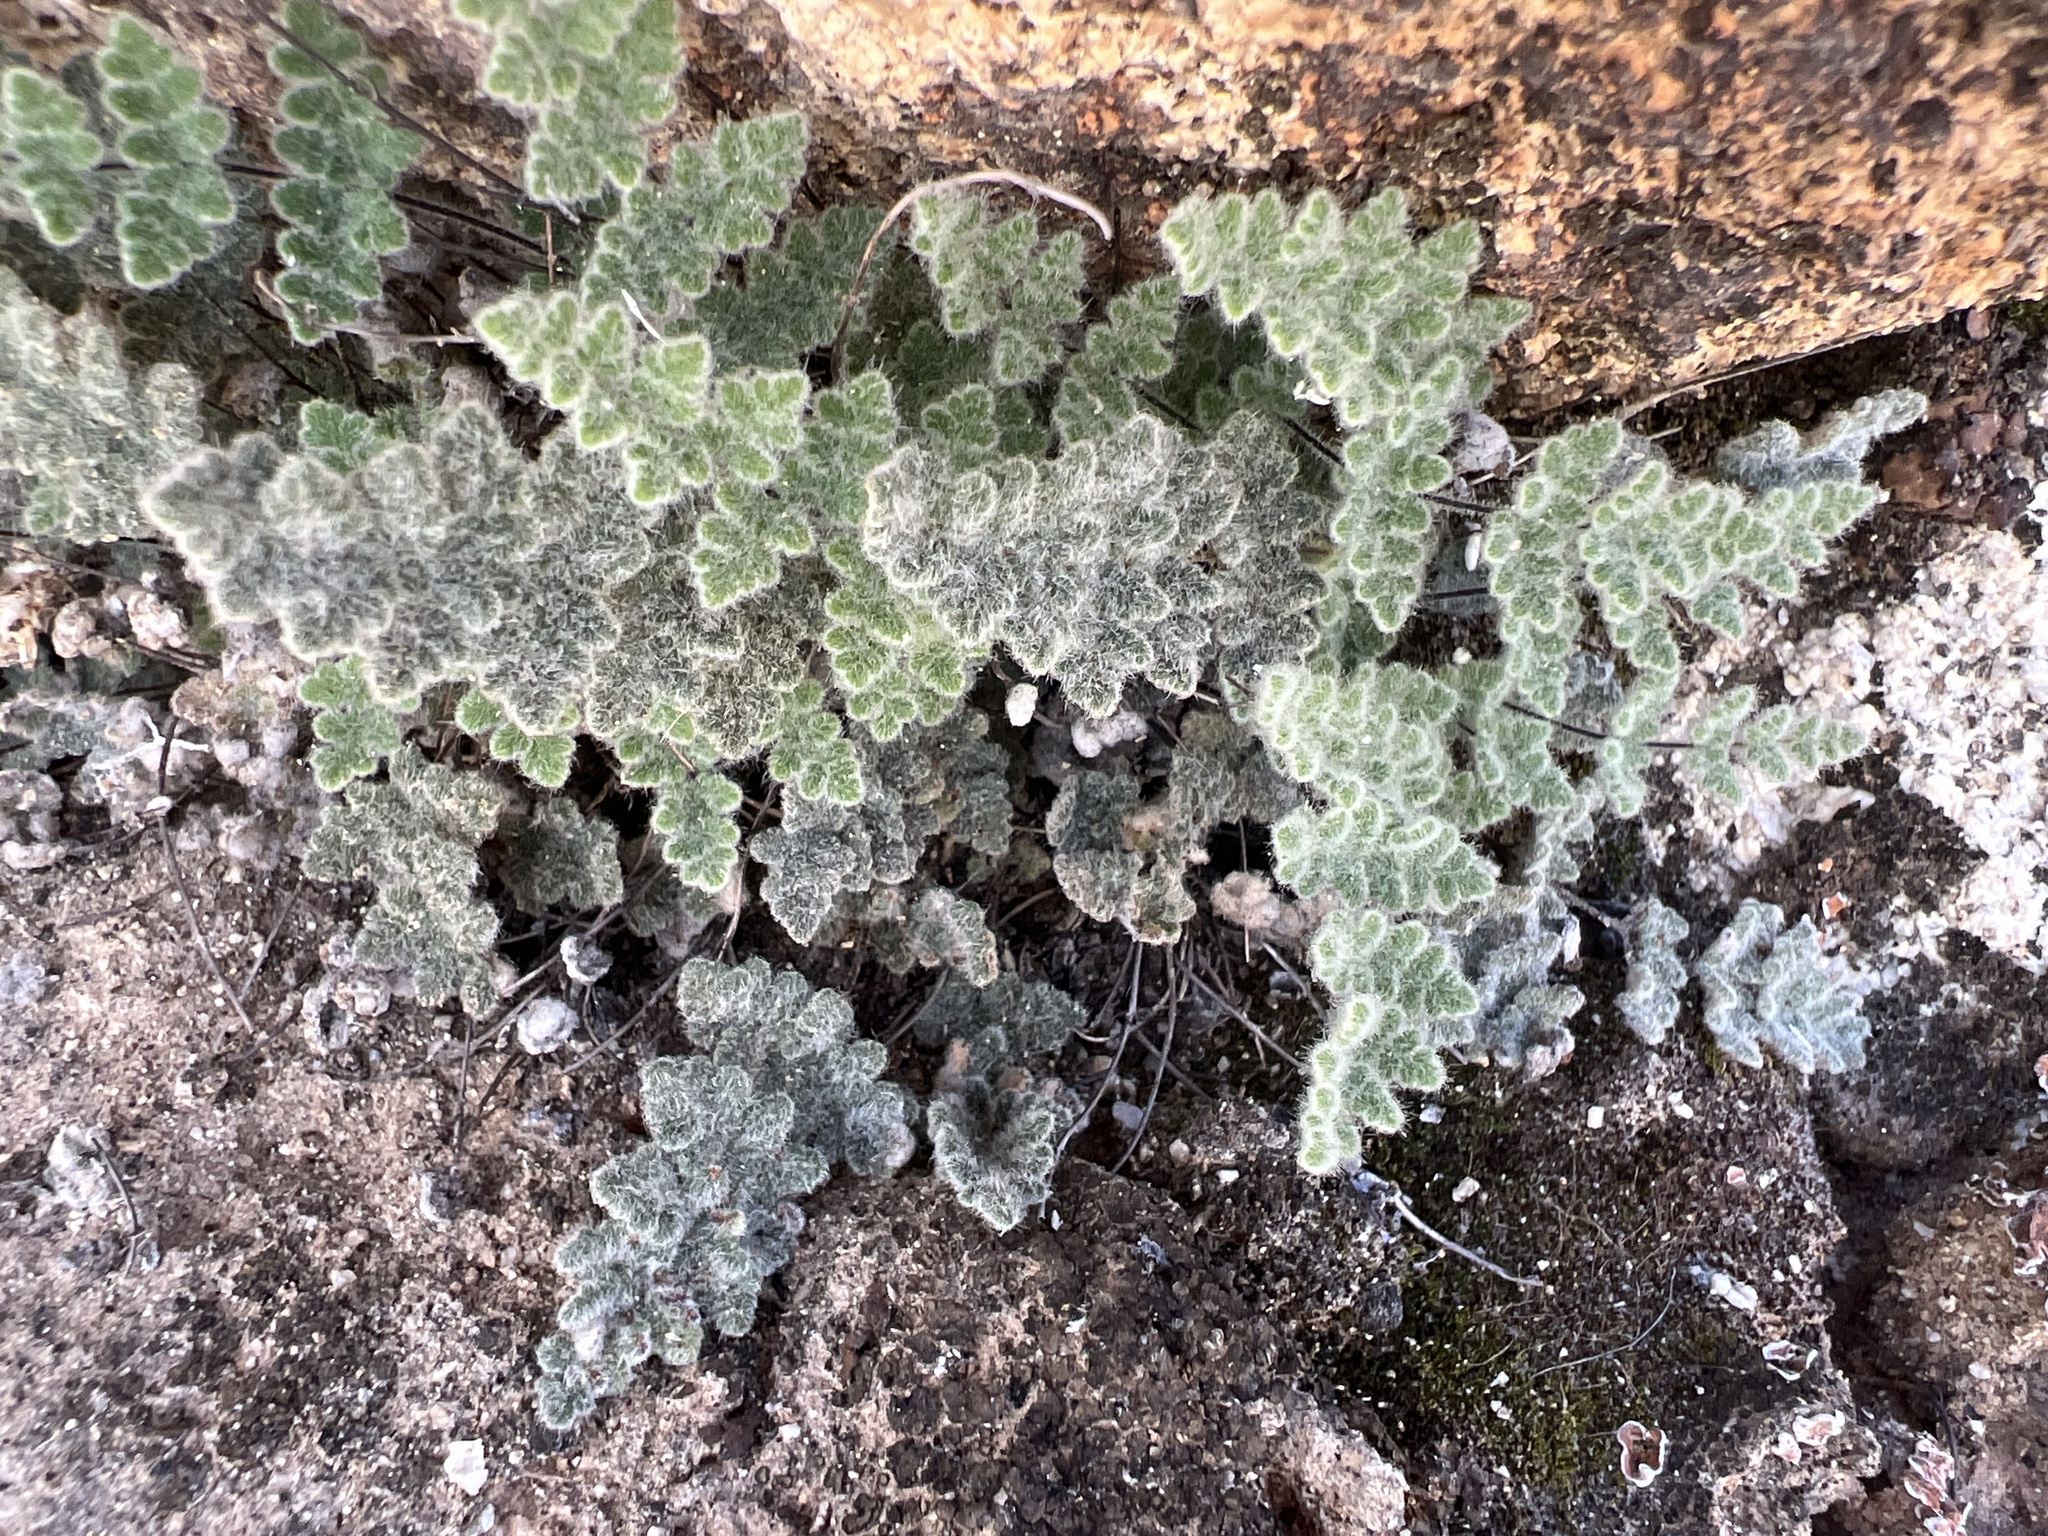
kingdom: Plantae
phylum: Tracheophyta
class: Polypodiopsida
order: Polypodiales
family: Pteridaceae
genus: Myriopteris
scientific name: Myriopteris parryi
